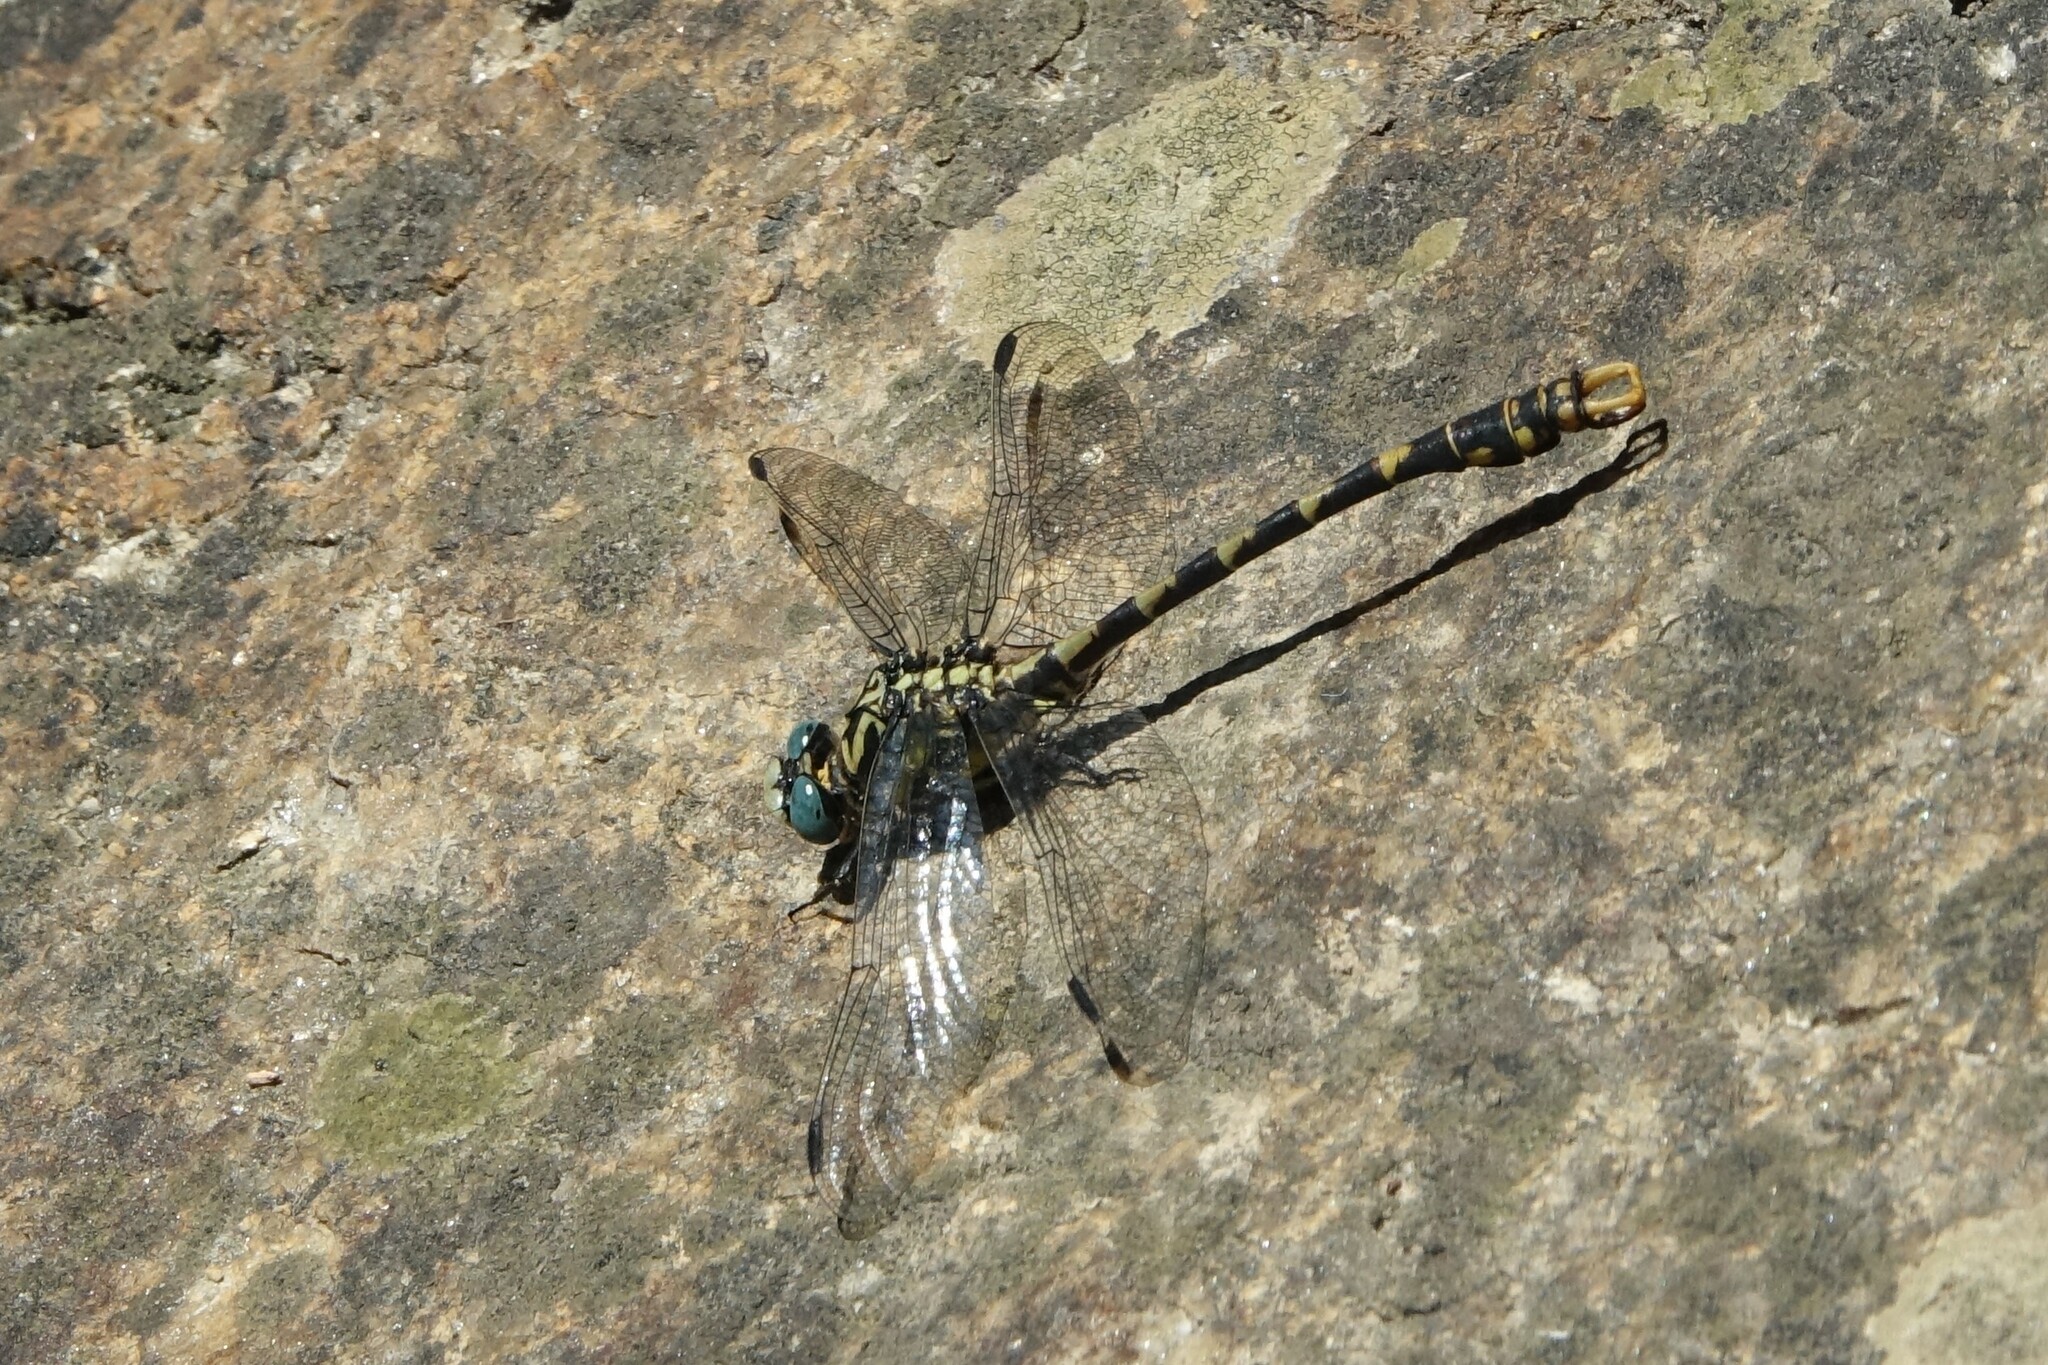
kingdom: Animalia
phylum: Arthropoda
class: Insecta
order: Odonata
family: Gomphidae
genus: Onychogomphus
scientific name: Onychogomphus uncatus
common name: Large pincertail
